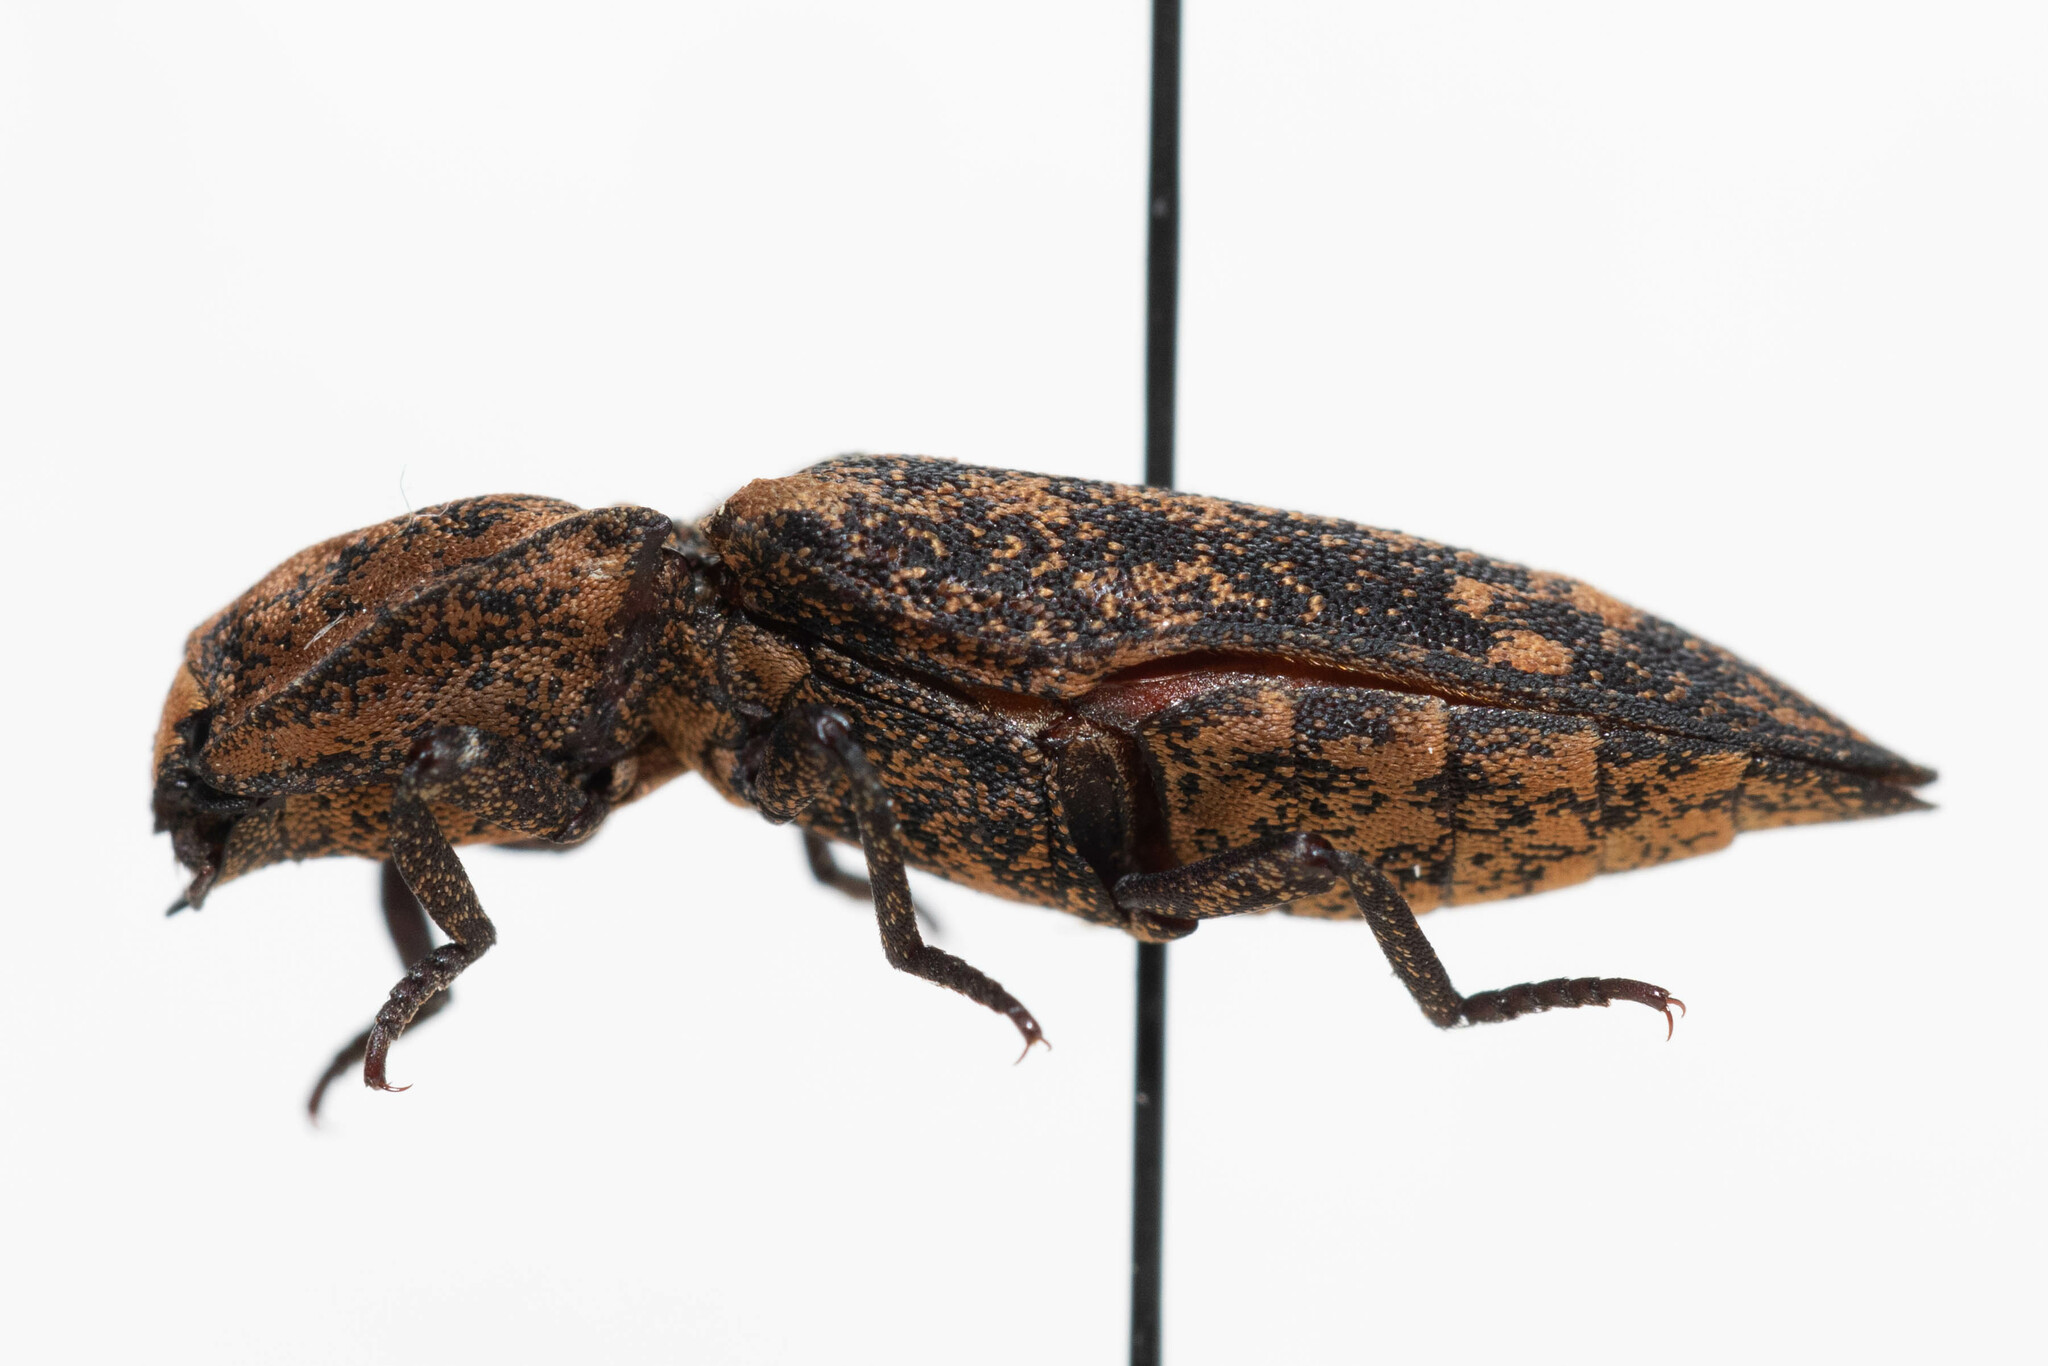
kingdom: Animalia
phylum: Arthropoda
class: Insecta
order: Coleoptera
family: Elateridae
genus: Danosoma
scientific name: Danosoma brevicorne
